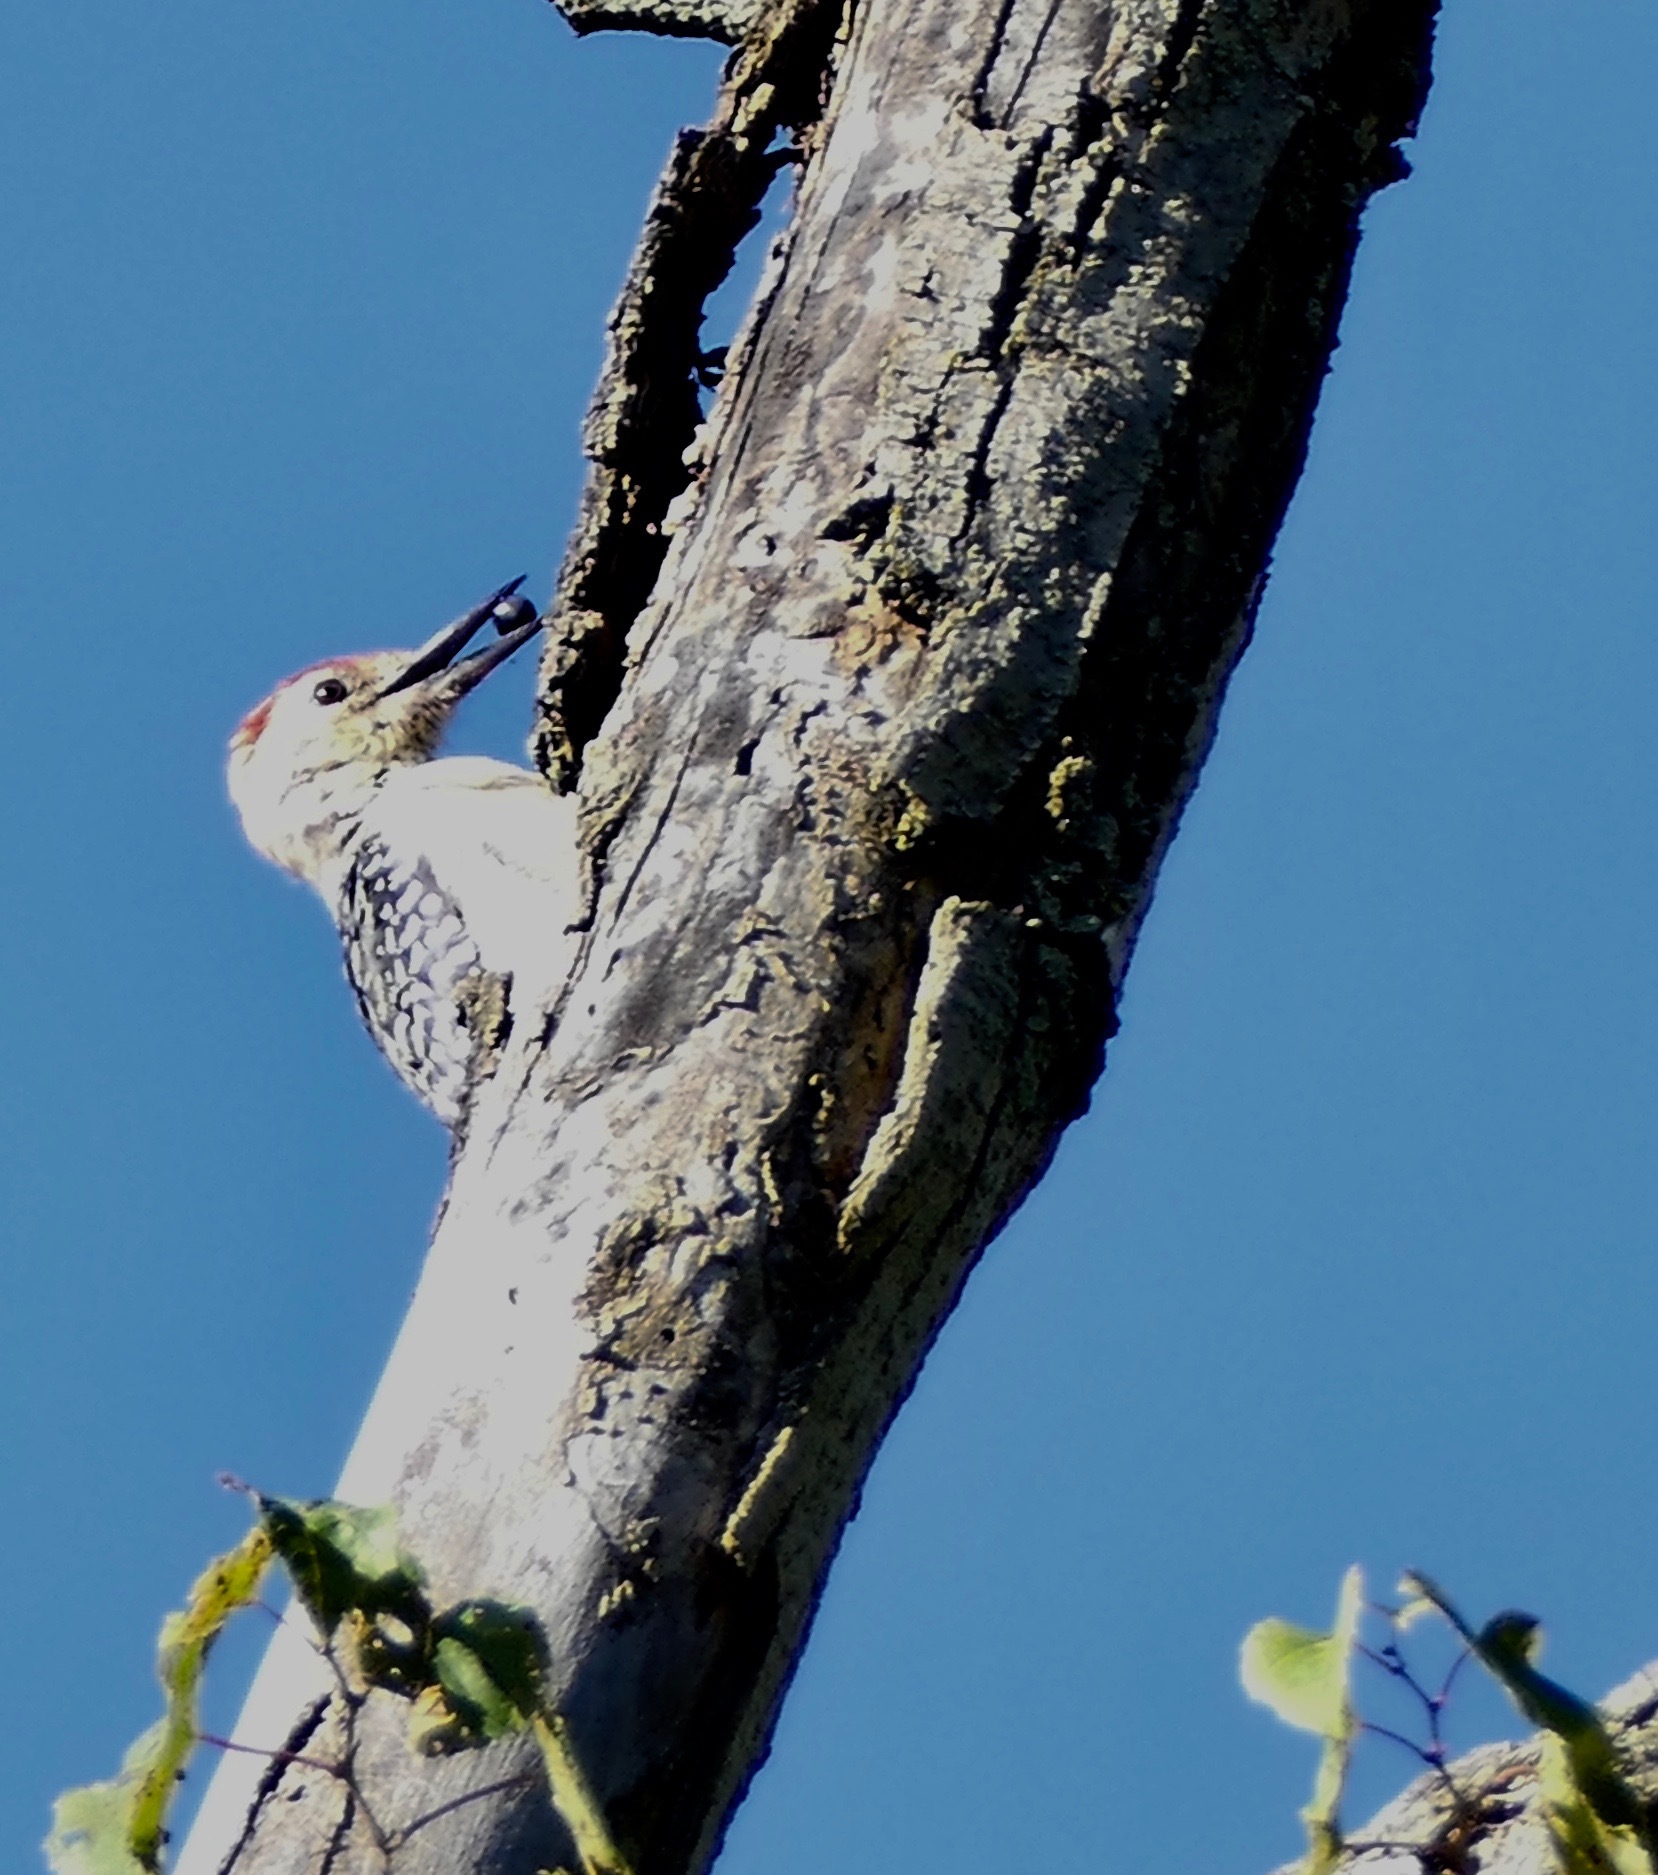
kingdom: Animalia
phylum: Chordata
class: Aves
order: Piciformes
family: Picidae
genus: Melanerpes
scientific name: Melanerpes carolinus
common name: Red-bellied woodpecker
